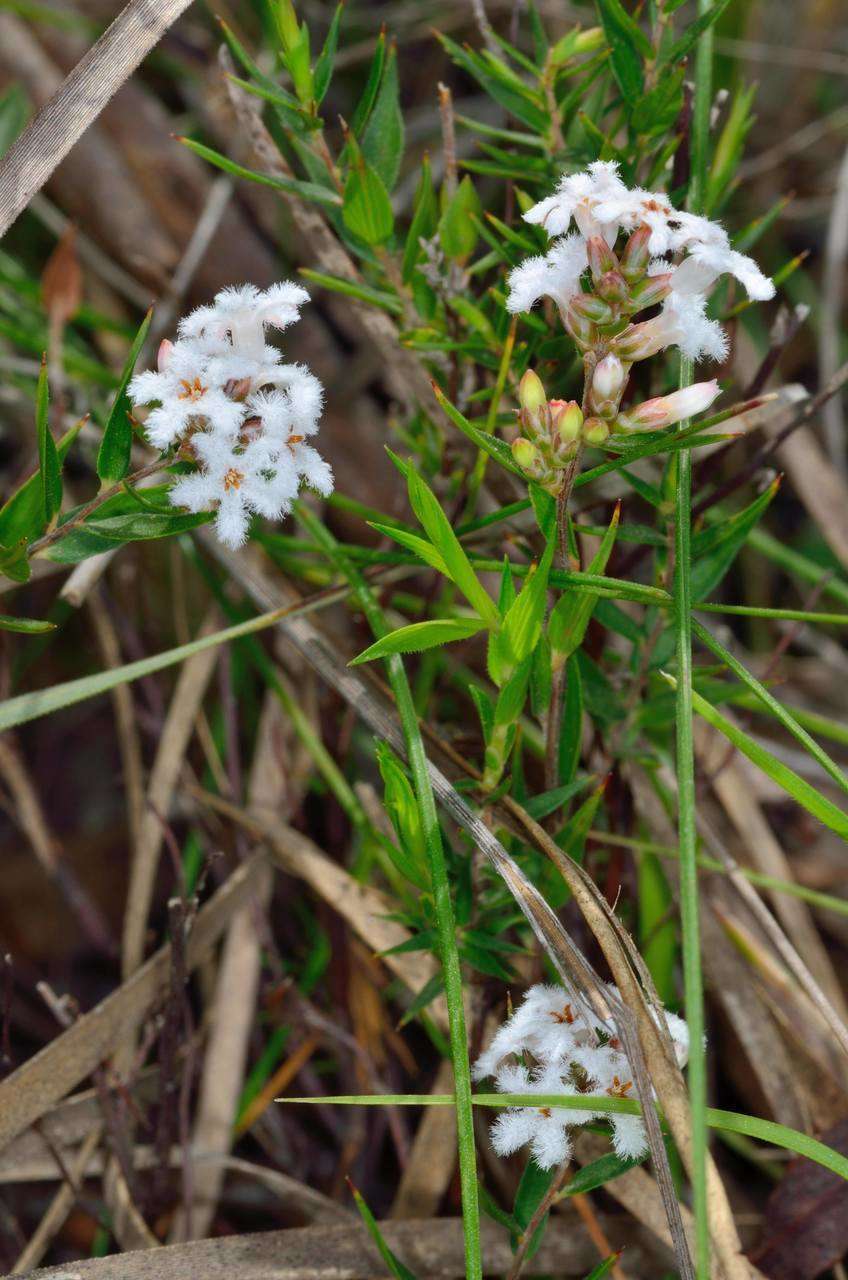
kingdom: Plantae
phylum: Tracheophyta
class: Magnoliopsida
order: Ericales
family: Ericaceae
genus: Leucopogon
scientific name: Leucopogon virgatus
